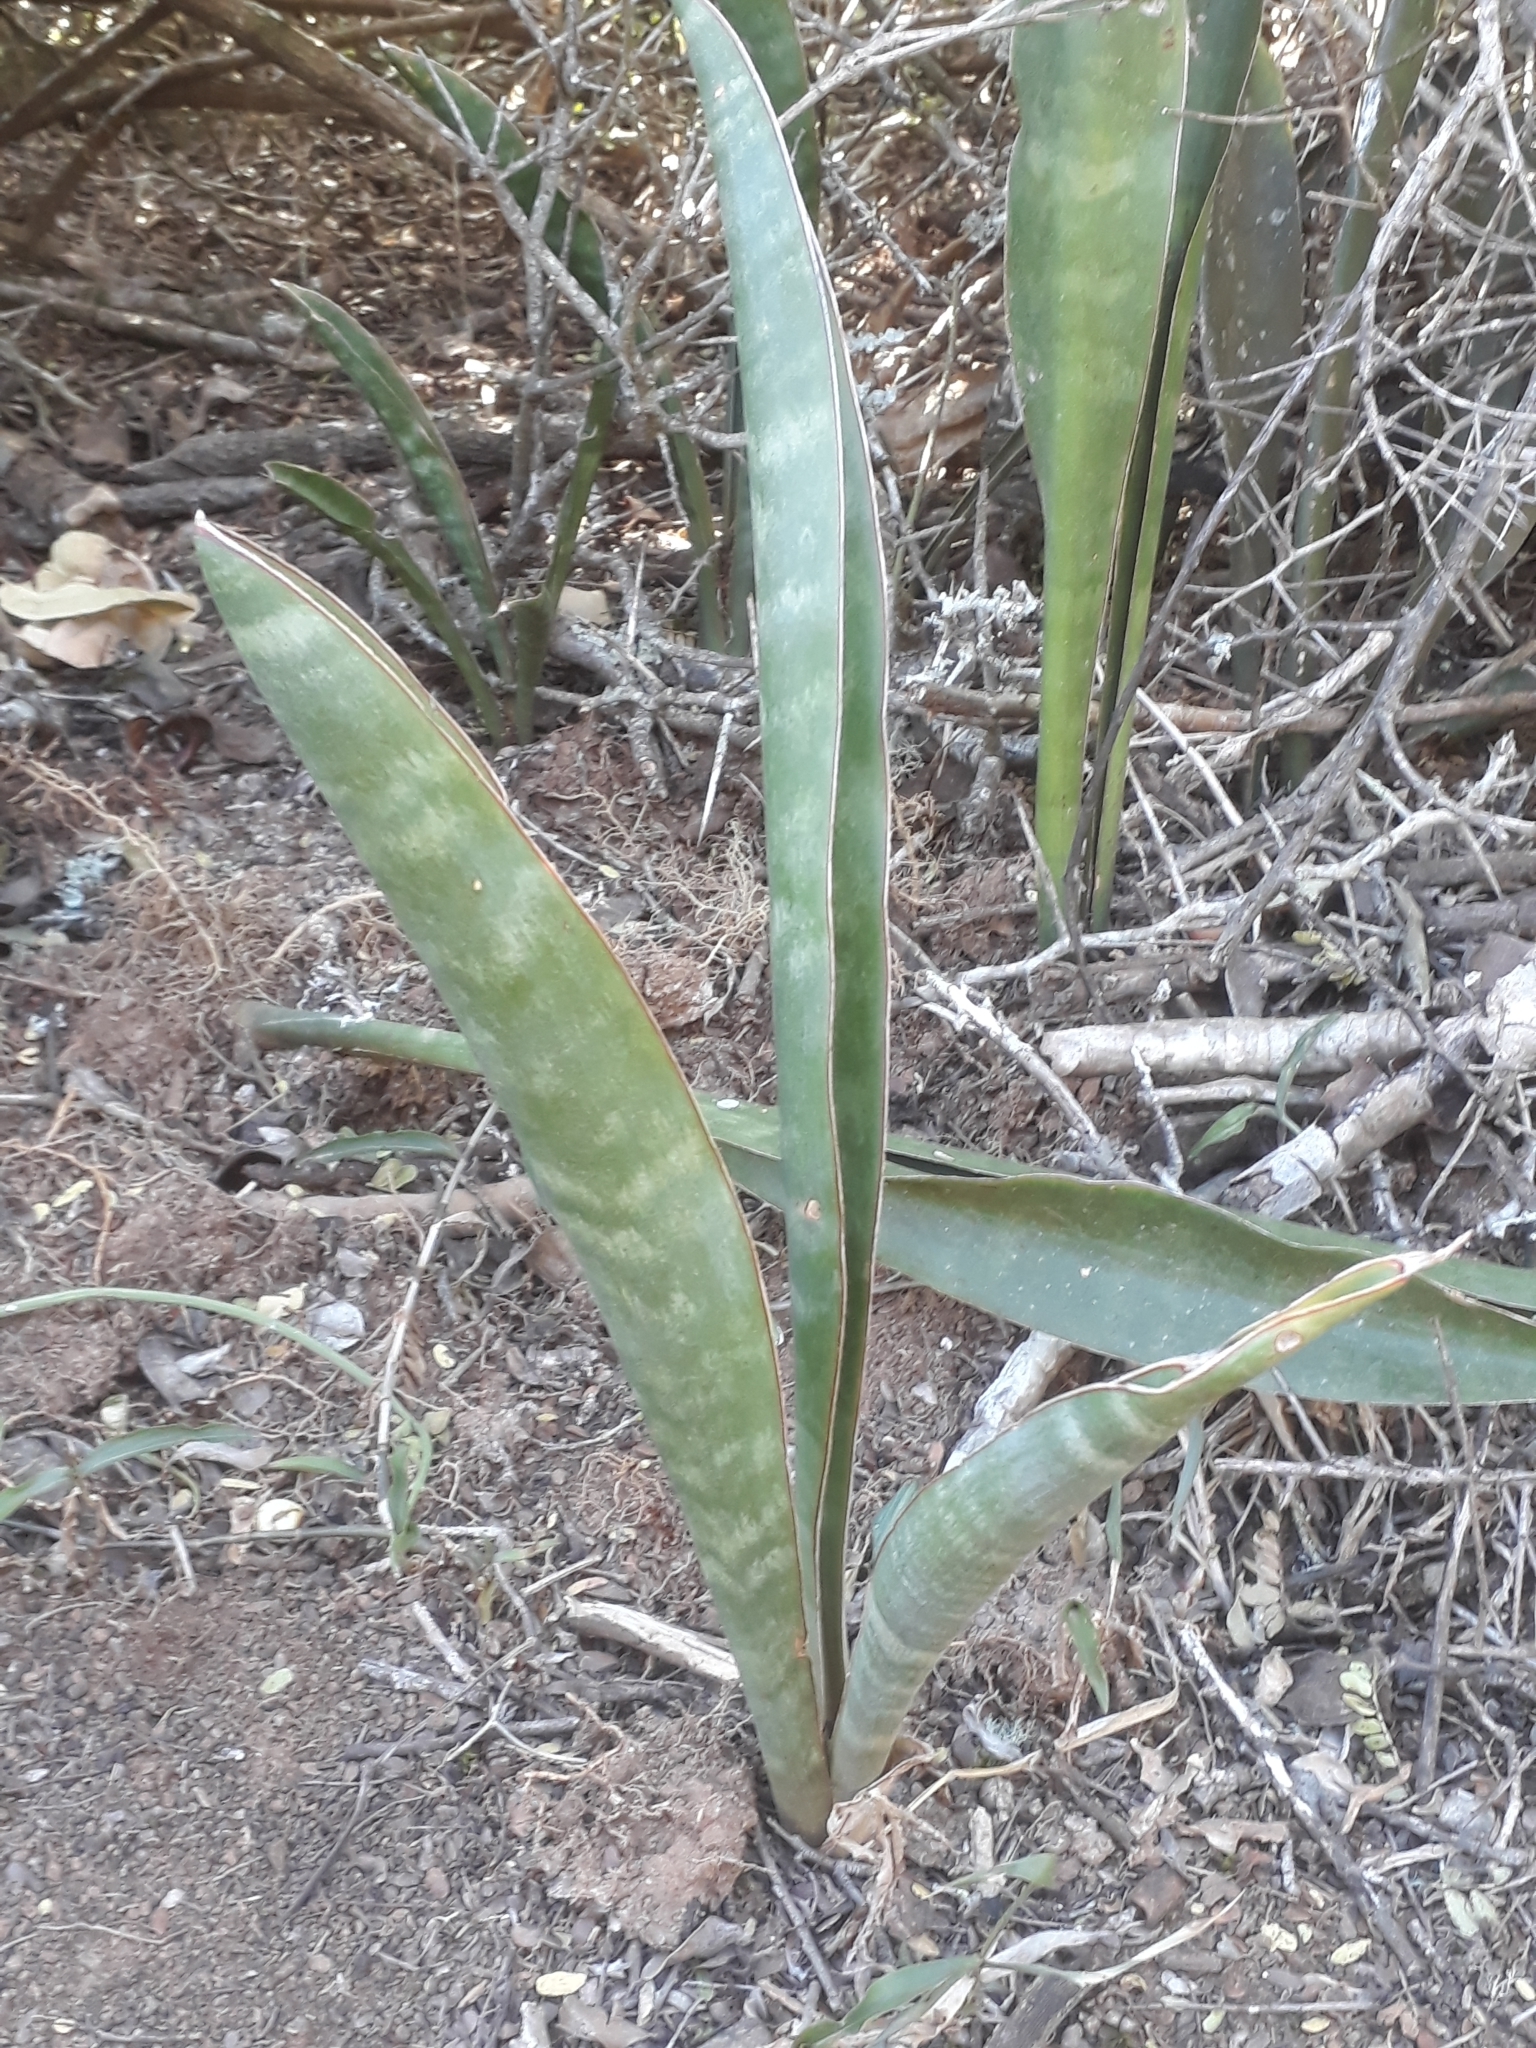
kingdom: Plantae
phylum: Tracheophyta
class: Liliopsida
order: Asparagales
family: Asparagaceae
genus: Dracaena
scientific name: Dracaena hyacinthoides
